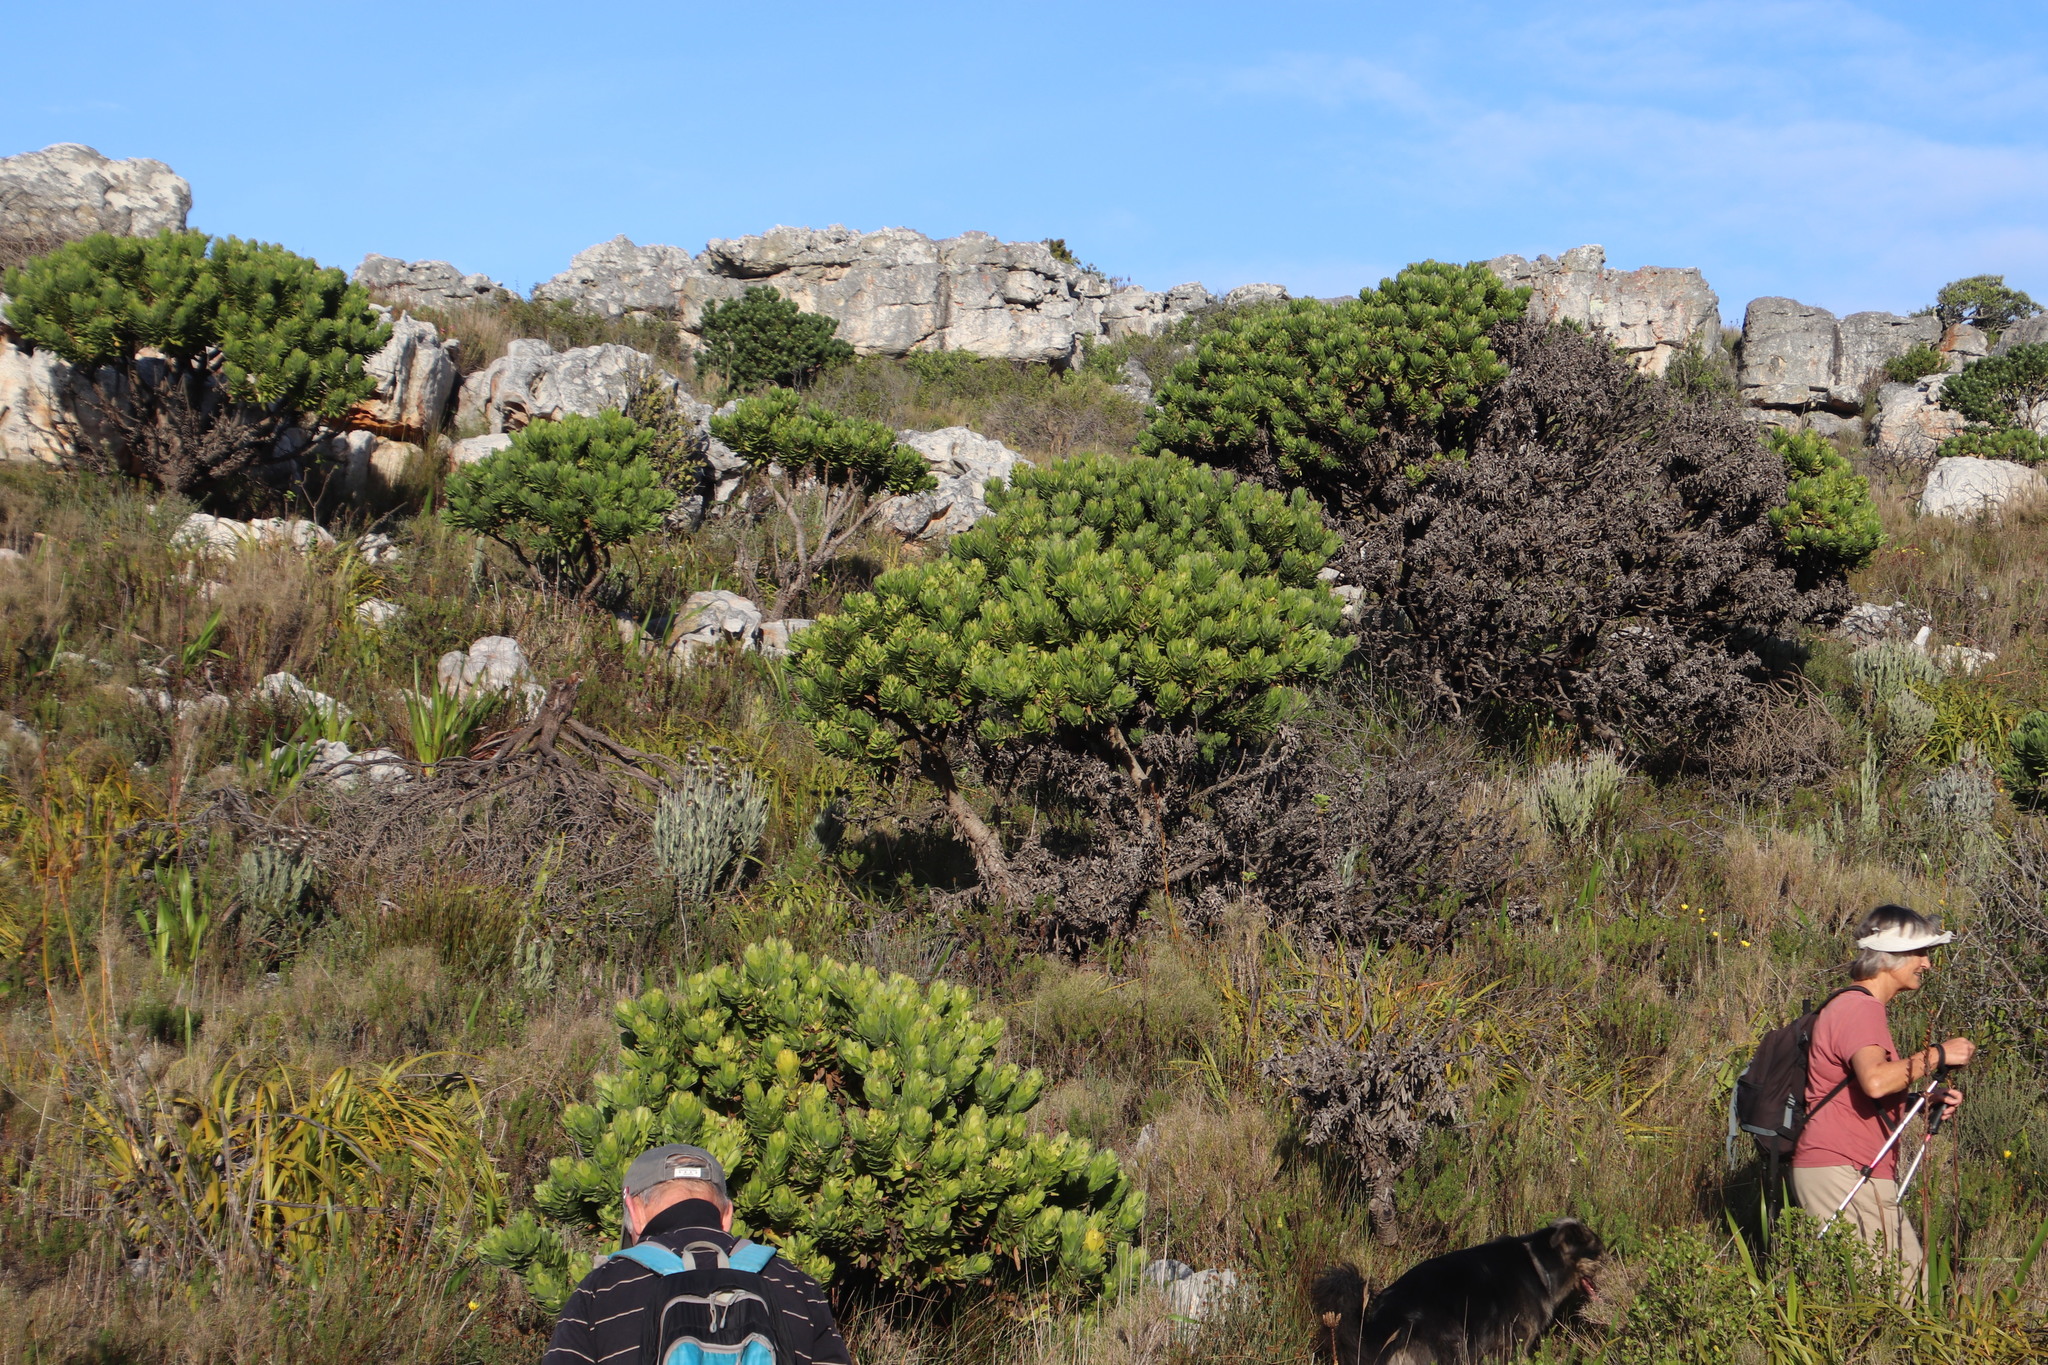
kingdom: Plantae
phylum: Tracheophyta
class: Magnoliopsida
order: Proteales
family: Proteaceae
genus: Mimetes
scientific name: Mimetes fimbriifolius
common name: Fringed bottlebrush
